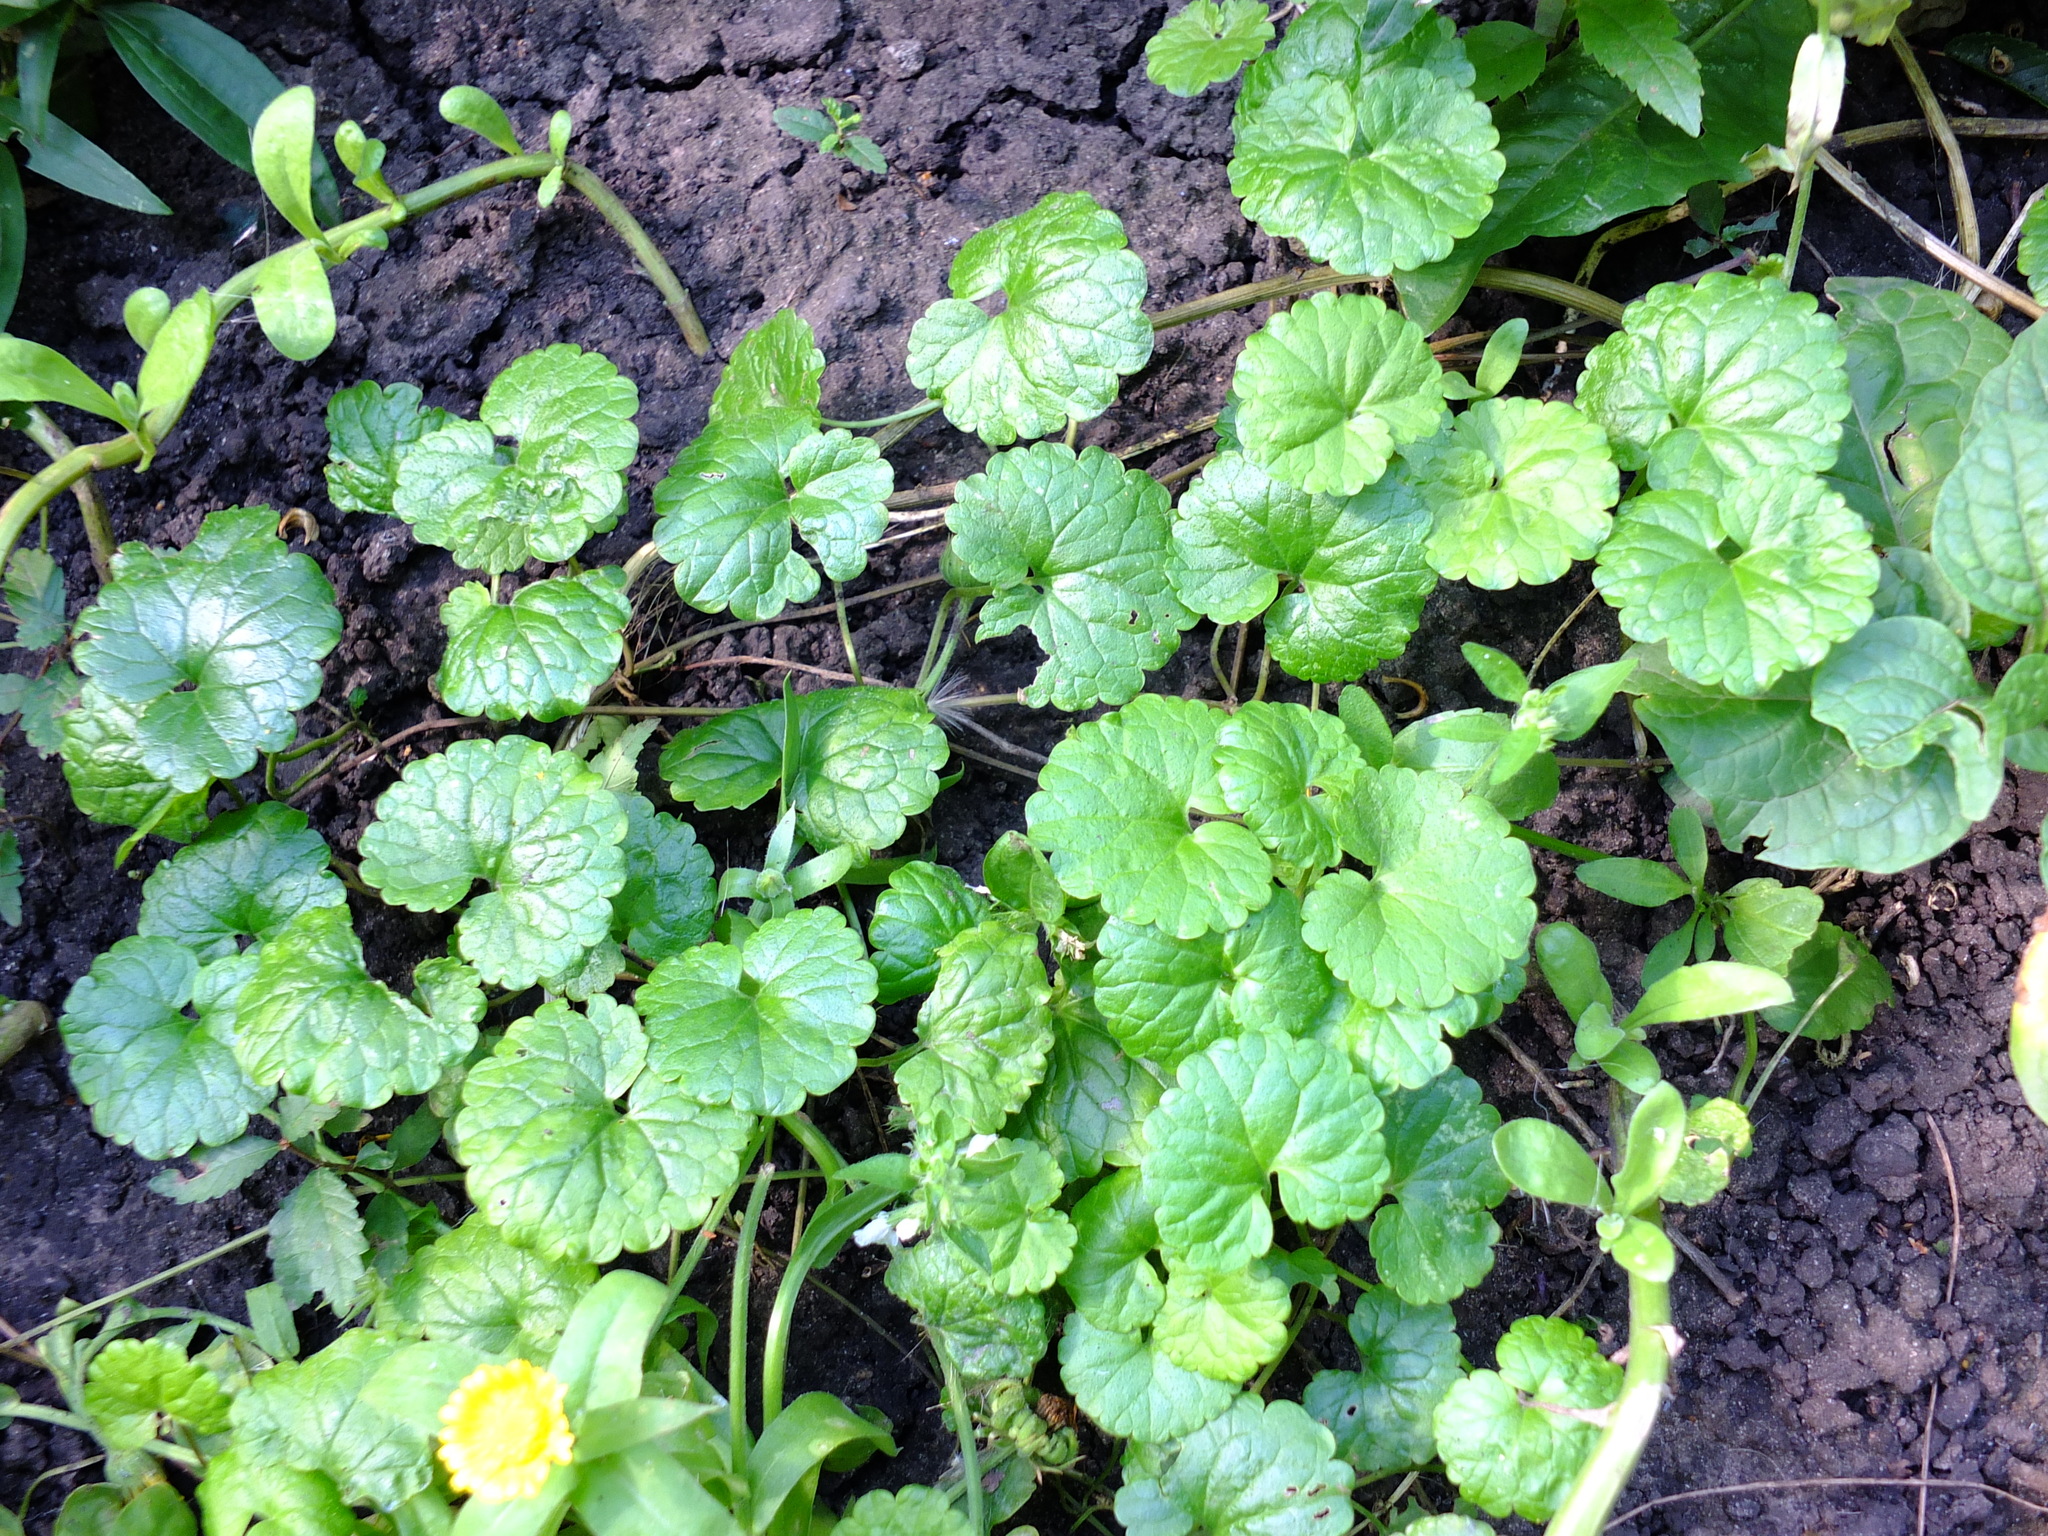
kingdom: Plantae
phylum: Tracheophyta
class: Magnoliopsida
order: Lamiales
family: Lamiaceae
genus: Glechoma
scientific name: Glechoma hederacea
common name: Ground ivy
